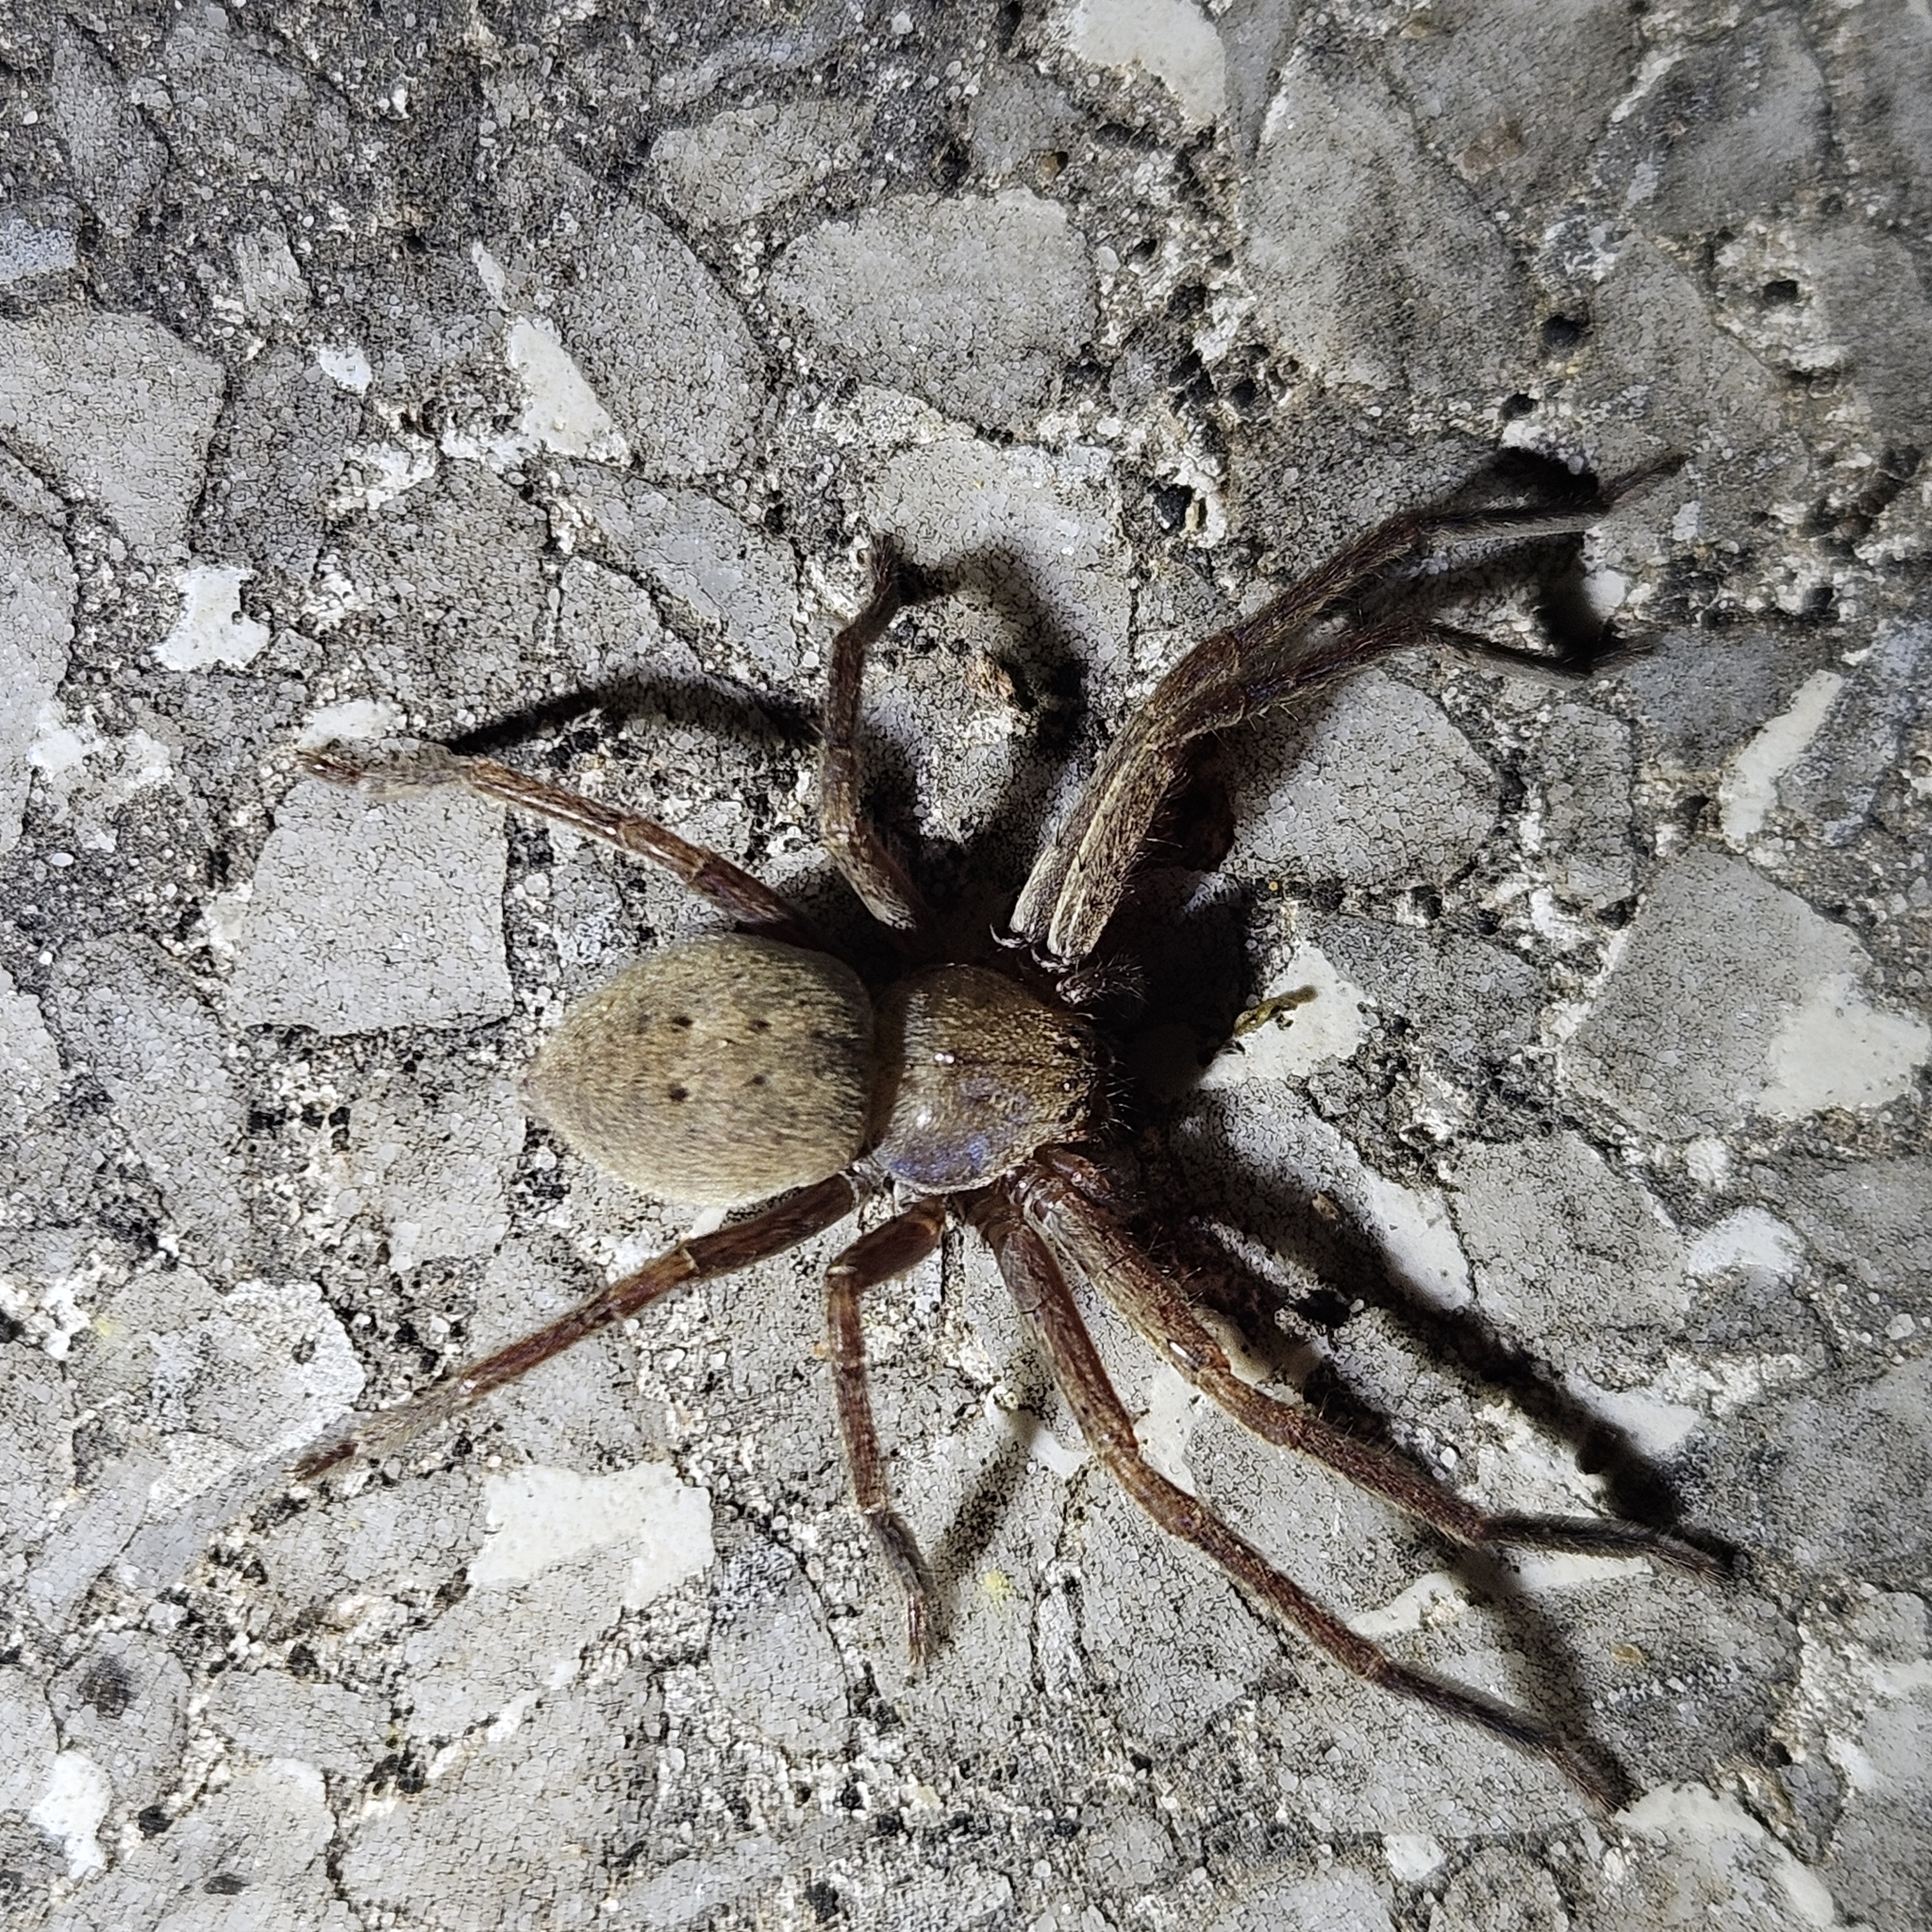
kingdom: Animalia
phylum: Arthropoda
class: Arachnida
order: Araneae
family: Sparassidae
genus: Olios
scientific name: Olios argelasius
